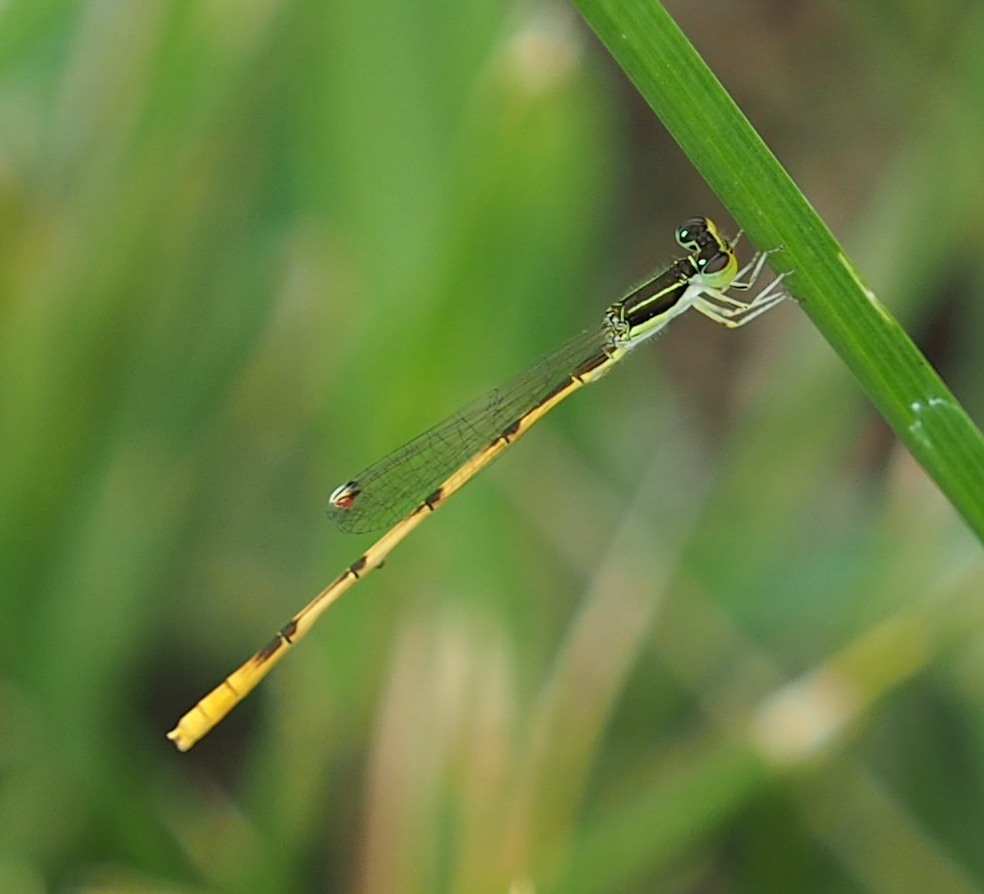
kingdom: Animalia
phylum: Arthropoda
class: Insecta
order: Odonata
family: Coenagrionidae
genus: Ischnura
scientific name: Ischnura hastata
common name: Citrine forktail
